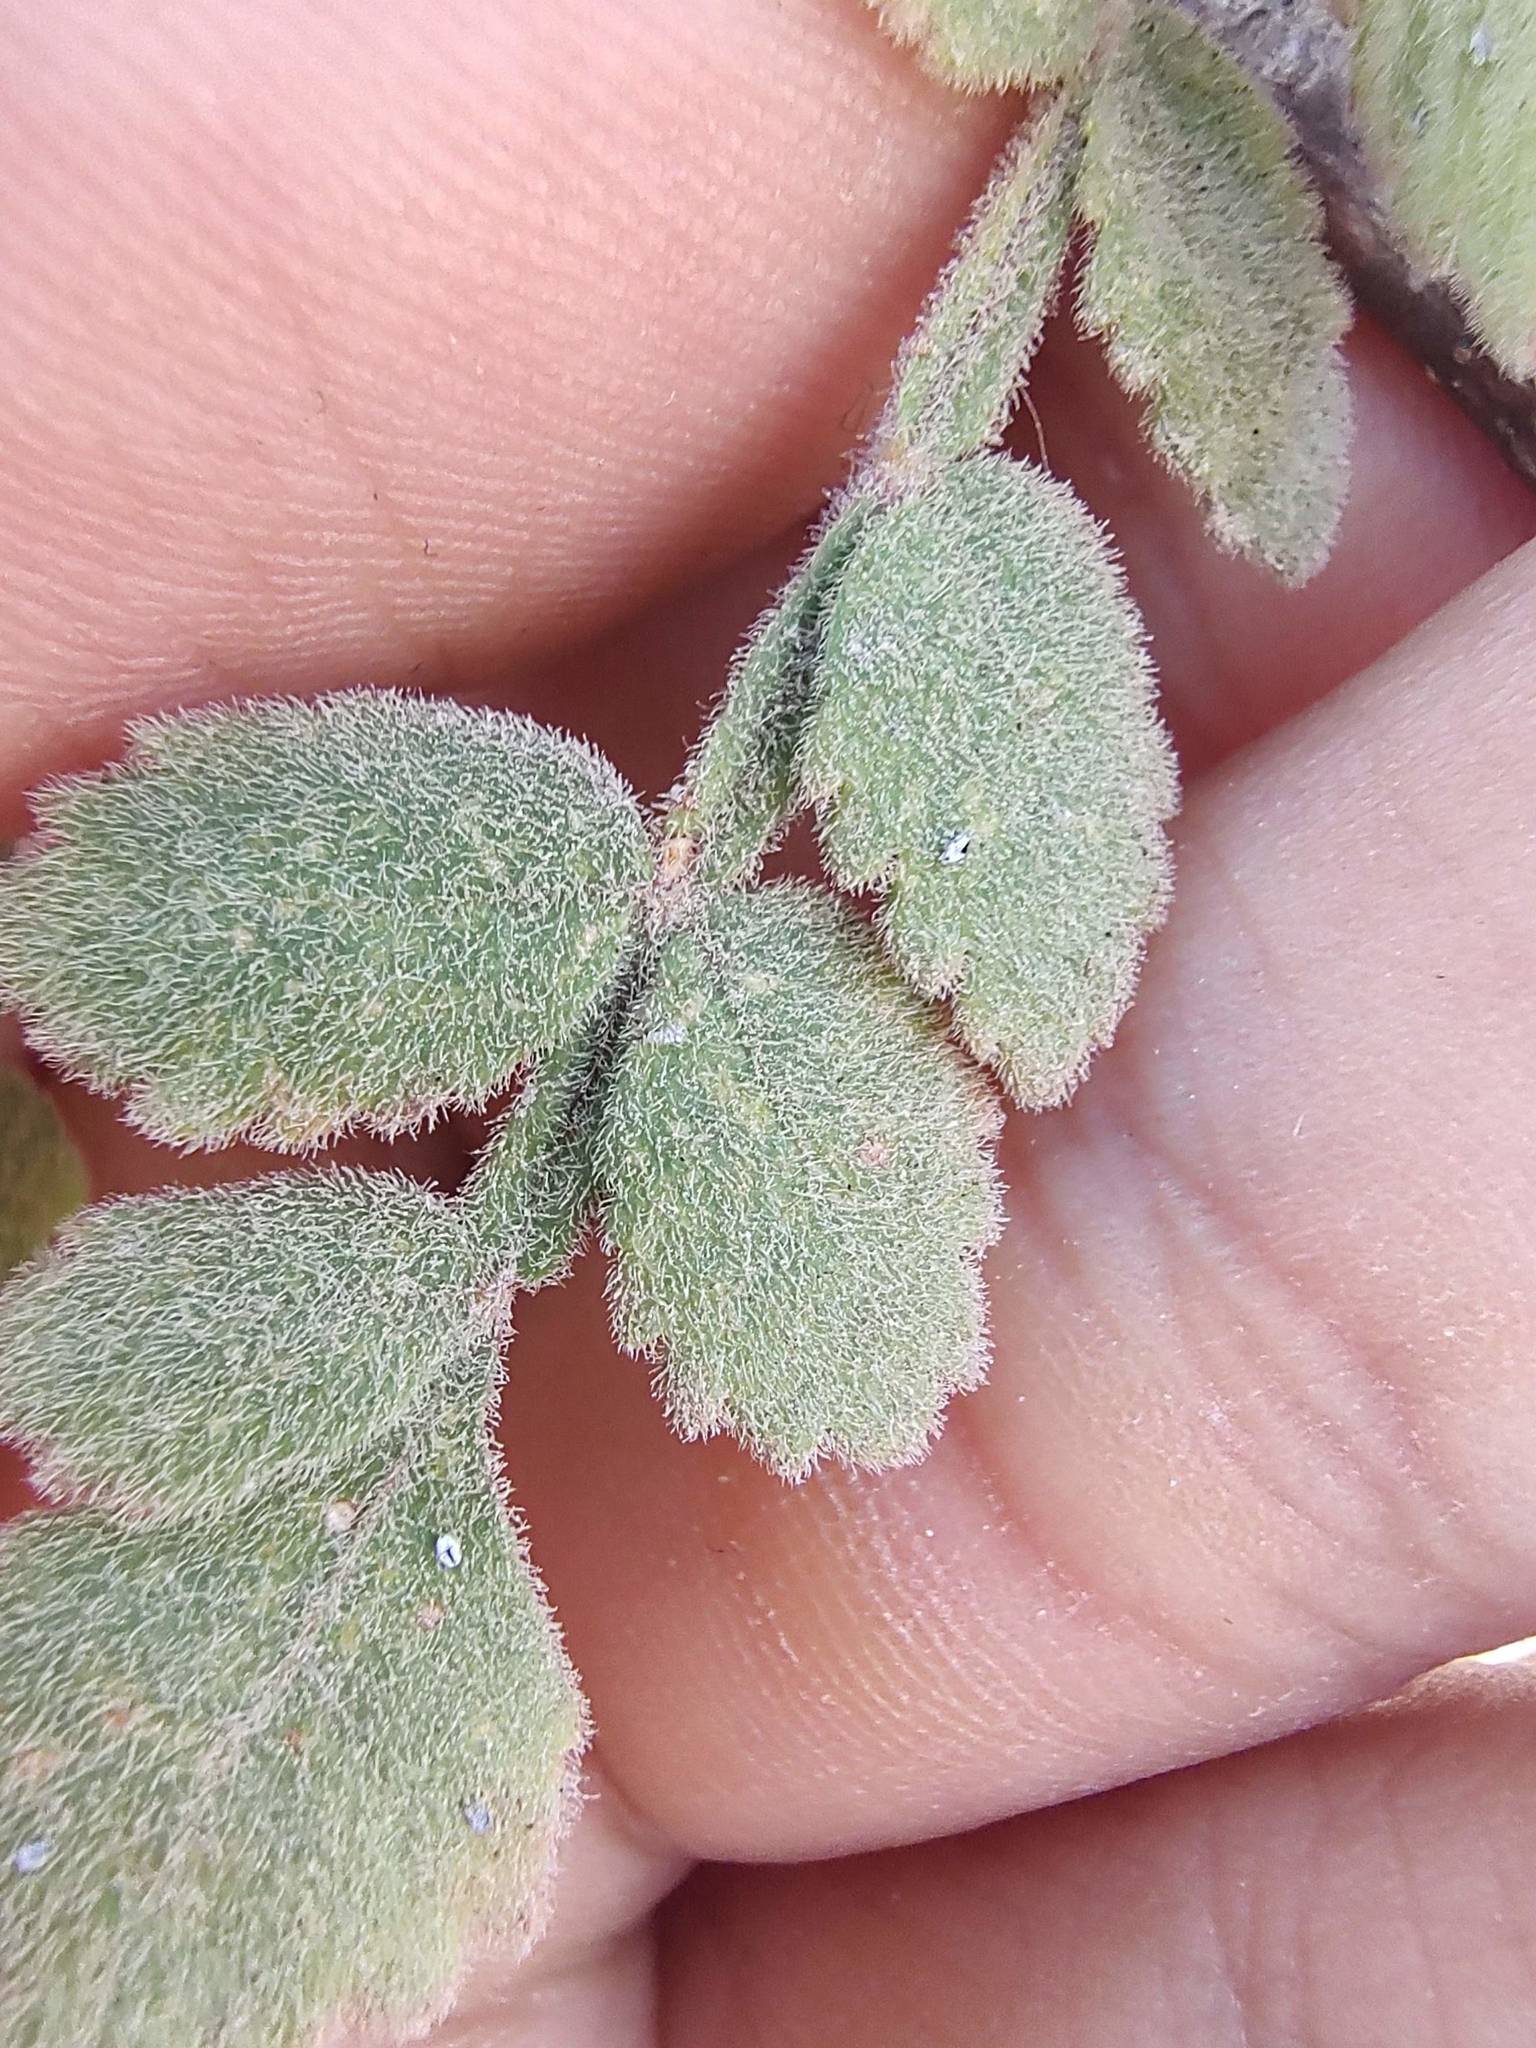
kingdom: Plantae
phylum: Tracheophyta
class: Magnoliopsida
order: Sapindales
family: Burseraceae
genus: Bursera
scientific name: Bursera filicifolia
